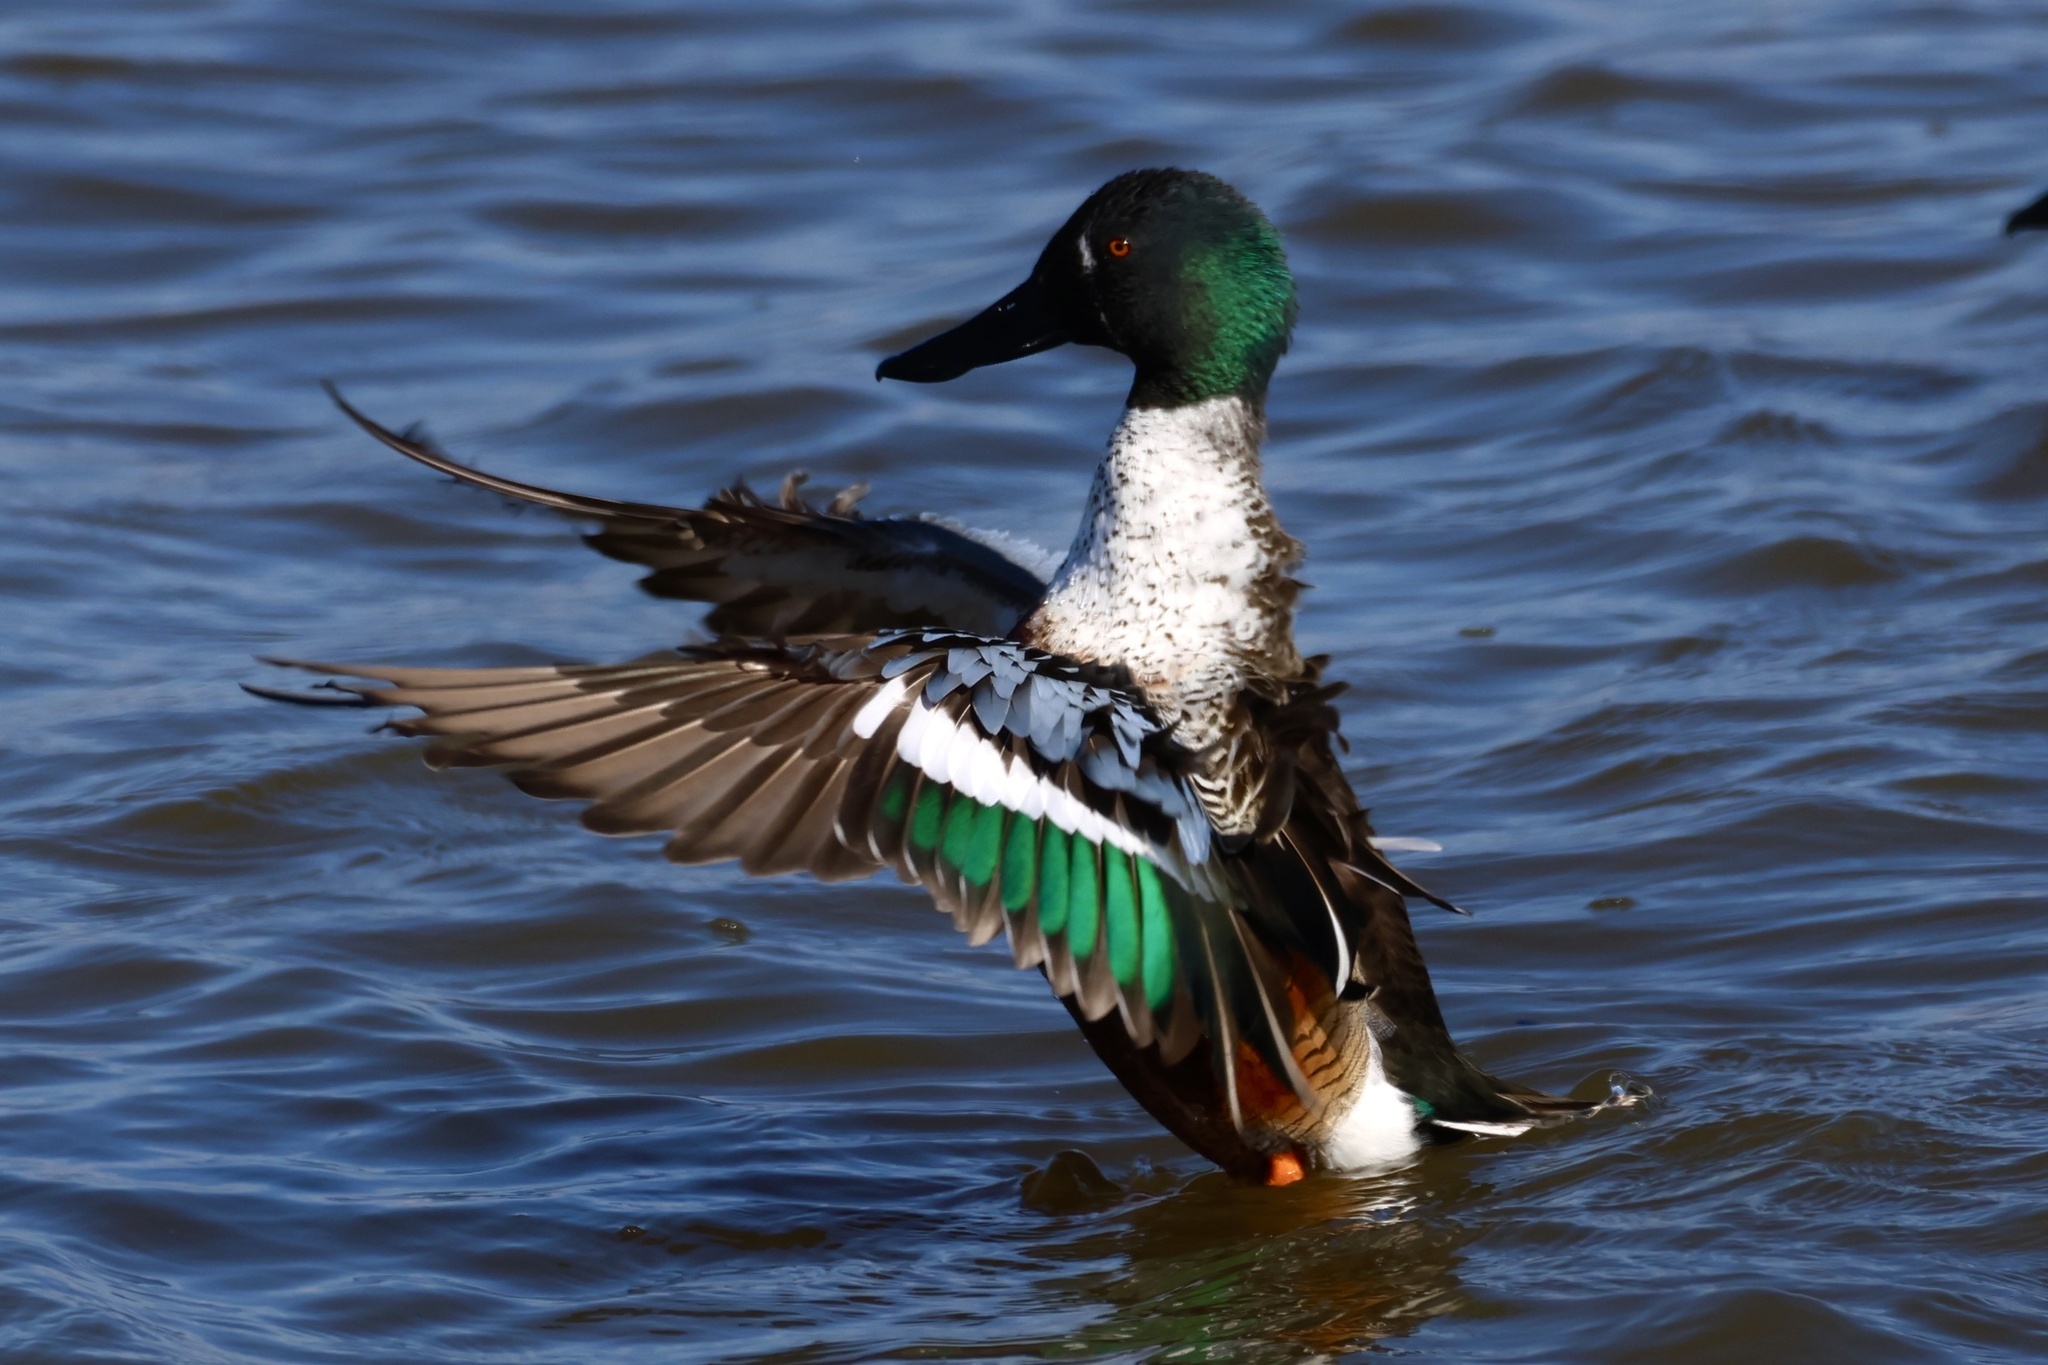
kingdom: Animalia
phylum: Chordata
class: Aves
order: Anseriformes
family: Anatidae
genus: Spatula
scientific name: Spatula clypeata
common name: Northern shoveler
